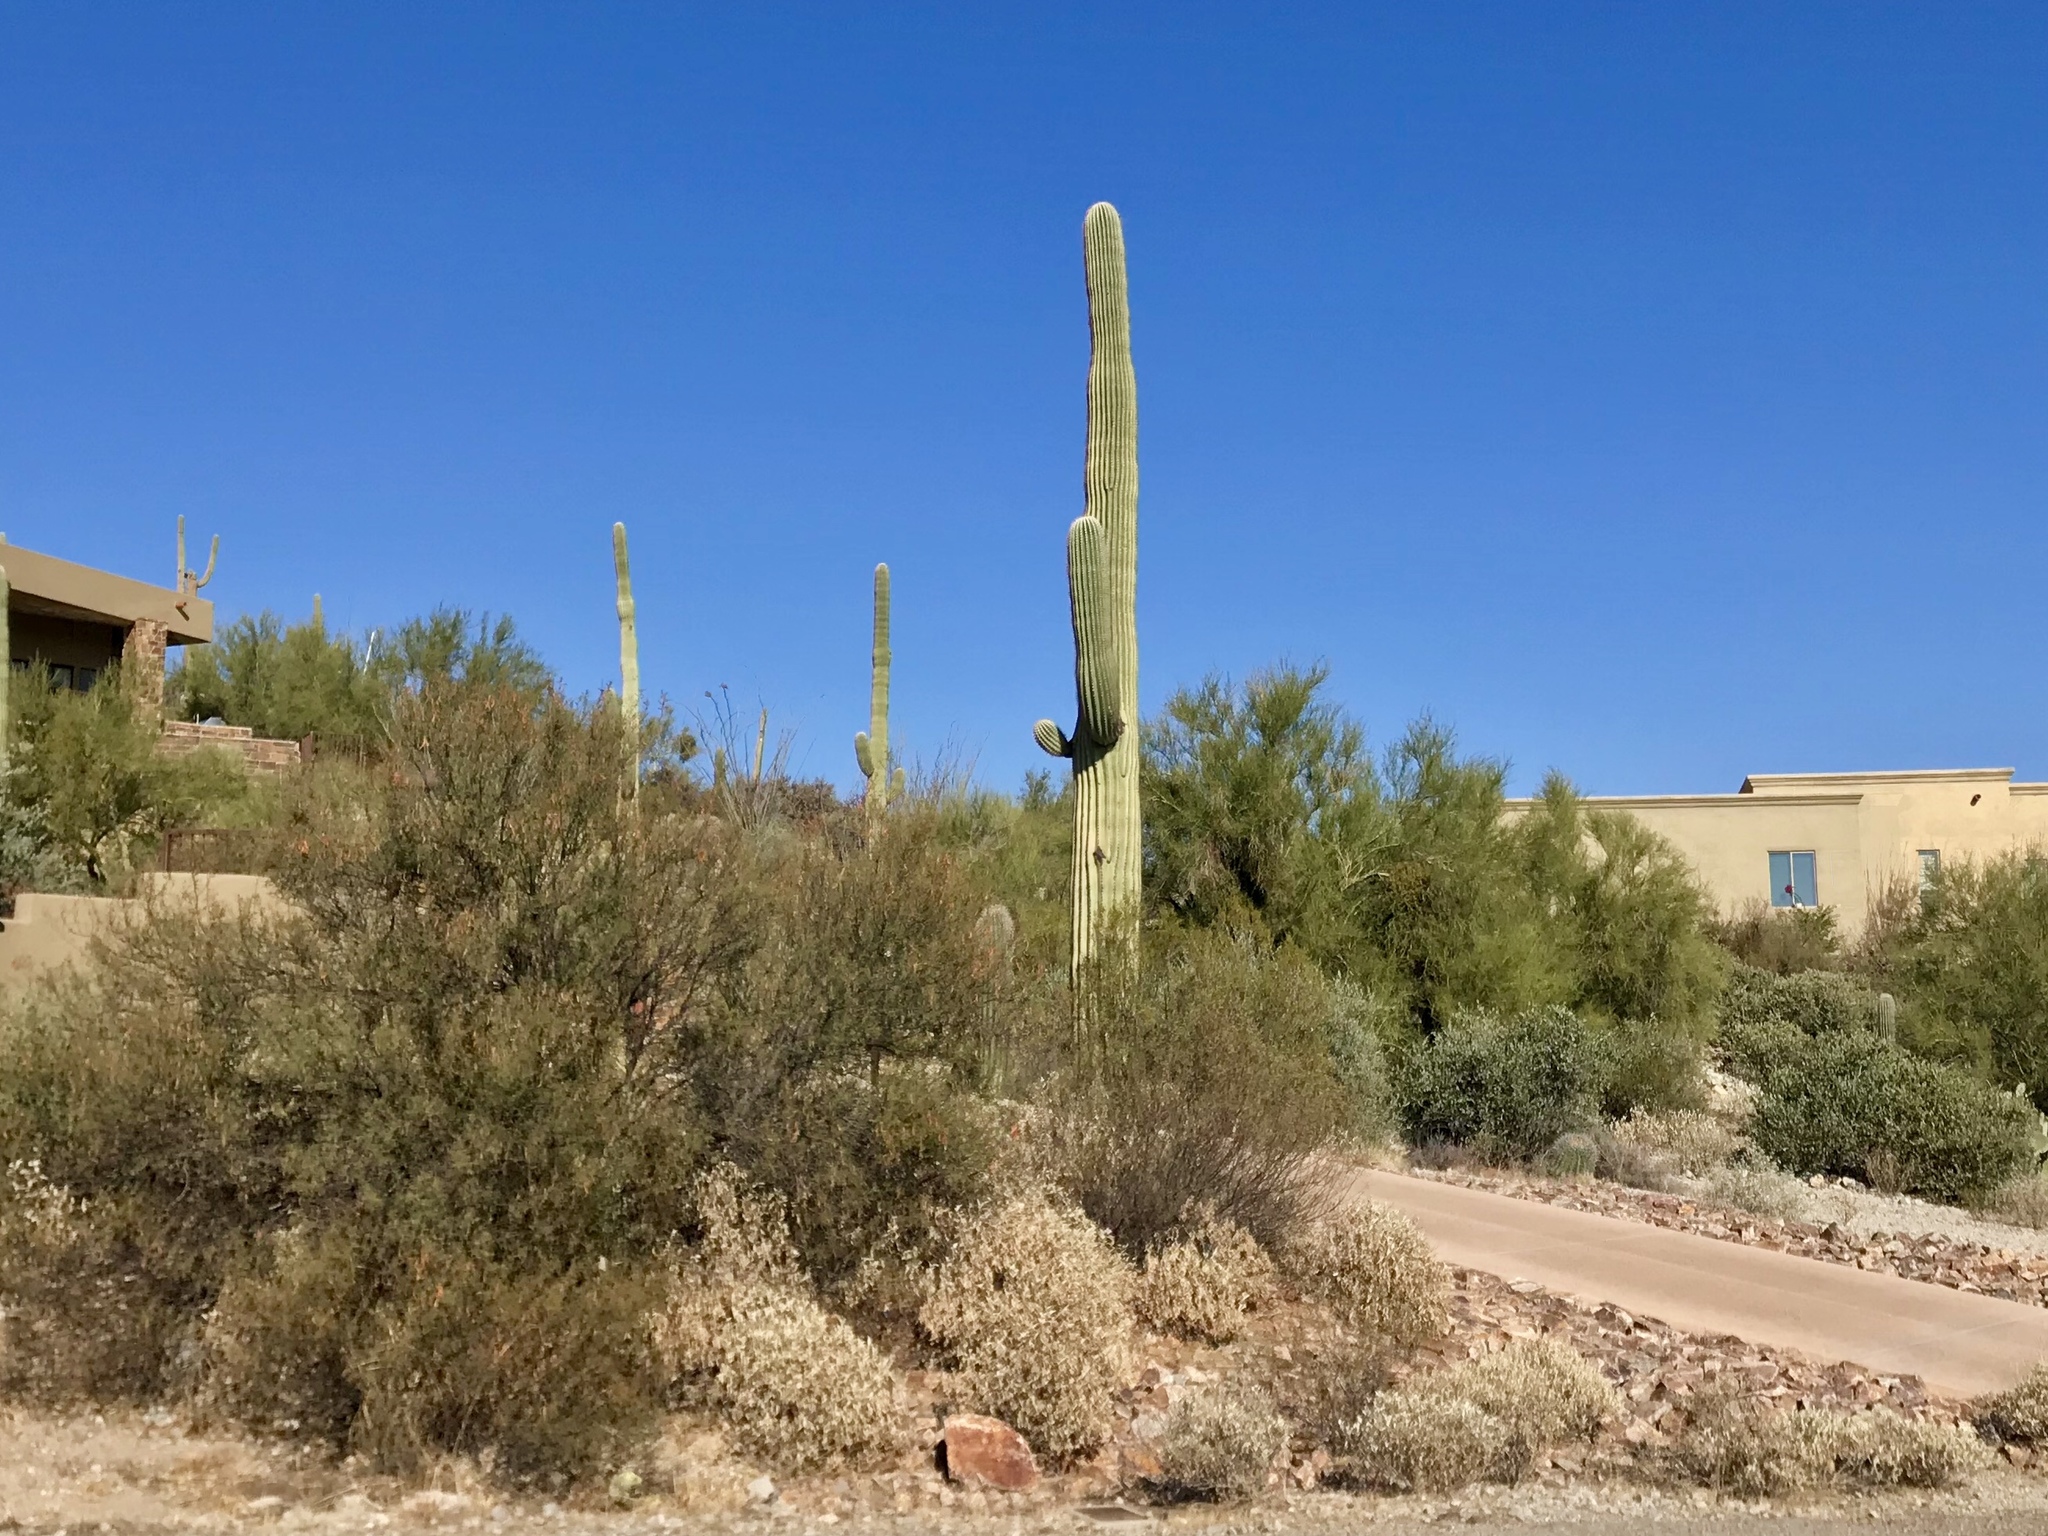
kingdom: Plantae
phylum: Tracheophyta
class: Magnoliopsida
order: Caryophyllales
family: Cactaceae
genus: Carnegiea
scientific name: Carnegiea gigantea
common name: Saguaro
